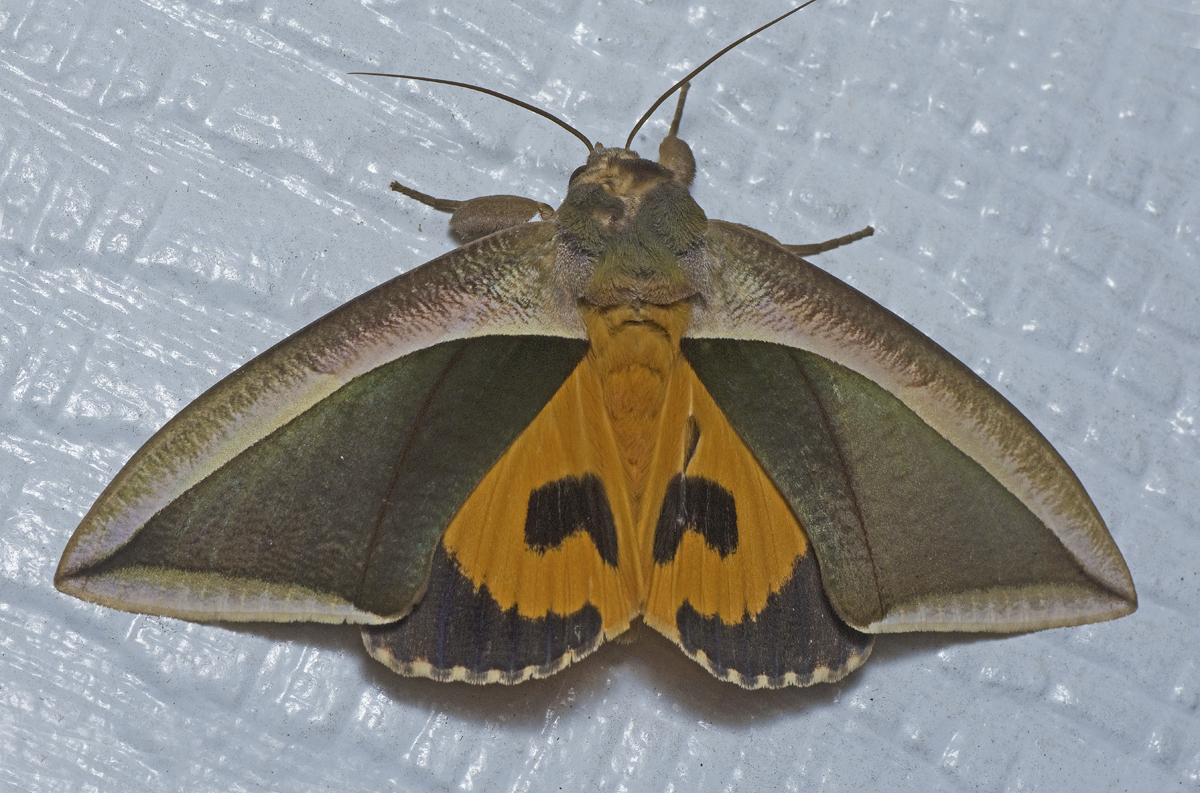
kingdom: Animalia
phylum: Arthropoda
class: Insecta
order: Lepidoptera
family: Erebidae
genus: Eudocima
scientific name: Eudocima salaminia
